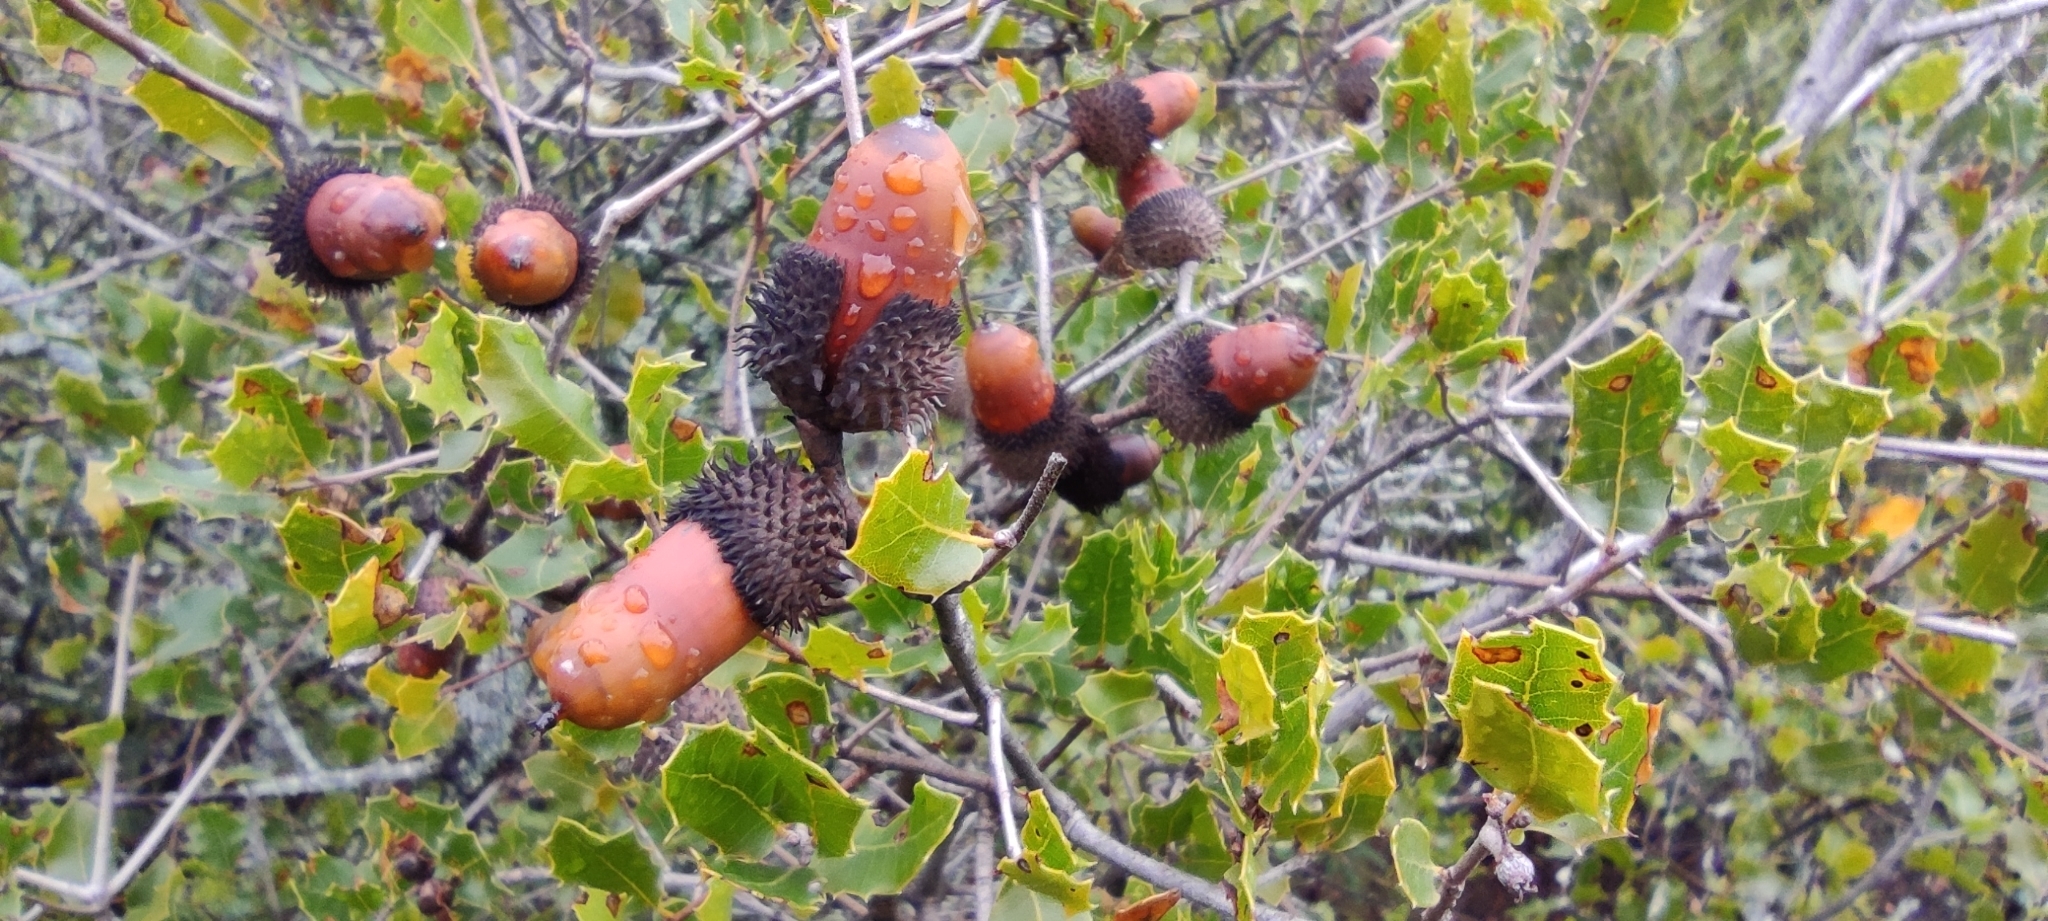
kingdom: Plantae
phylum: Tracheophyta
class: Magnoliopsida
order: Fagales
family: Fagaceae
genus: Quercus
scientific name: Quercus coccifera
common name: Kermes oak
